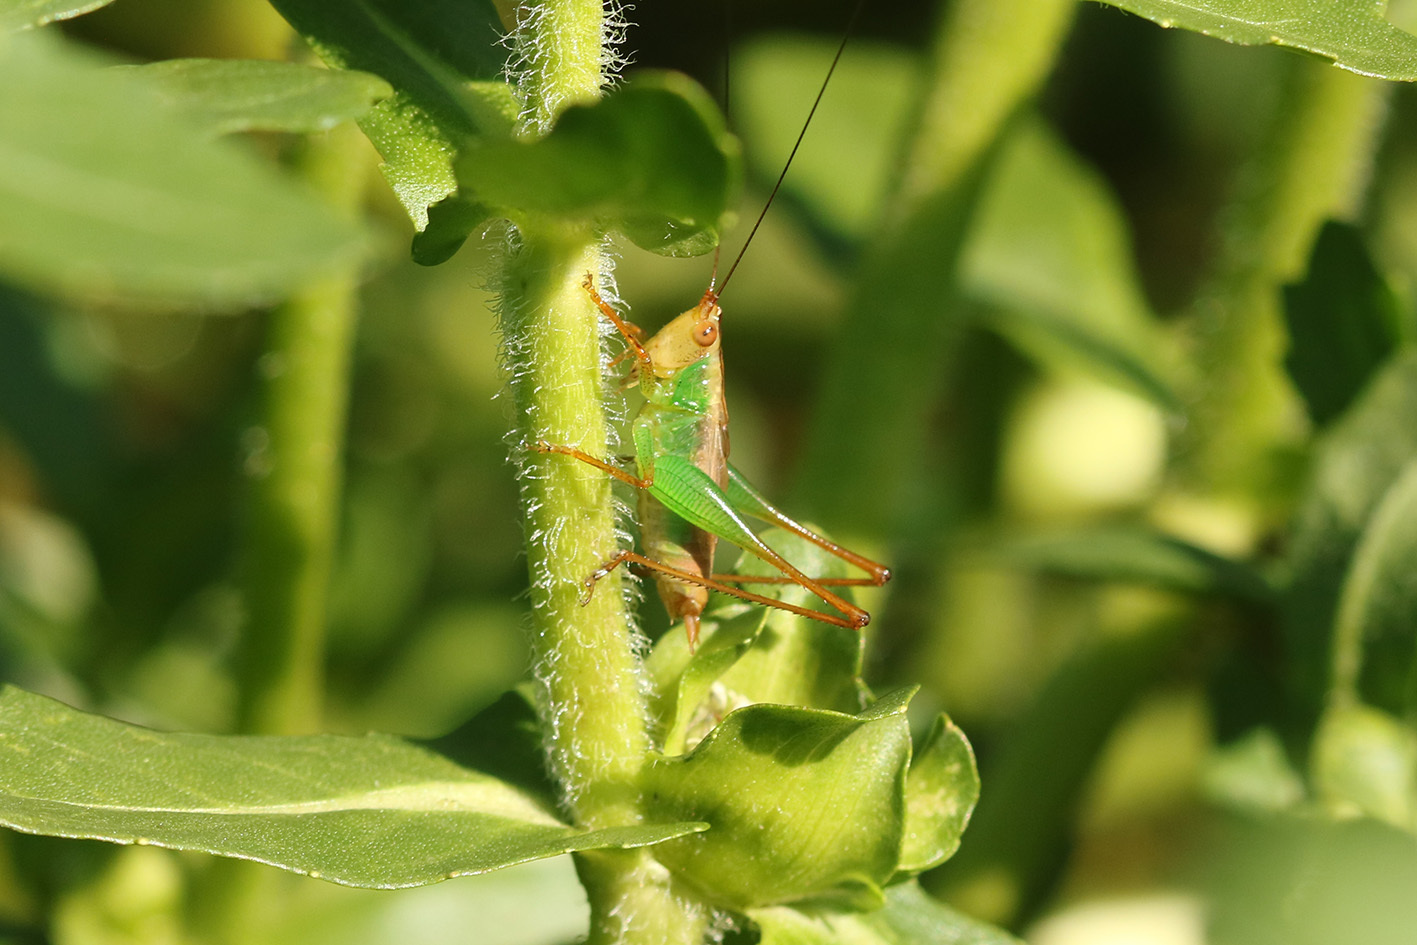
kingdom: Animalia
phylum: Arthropoda
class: Insecta
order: Orthoptera
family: Tettigoniidae
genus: Conocephalus
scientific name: Conocephalus cinnamonifrons
